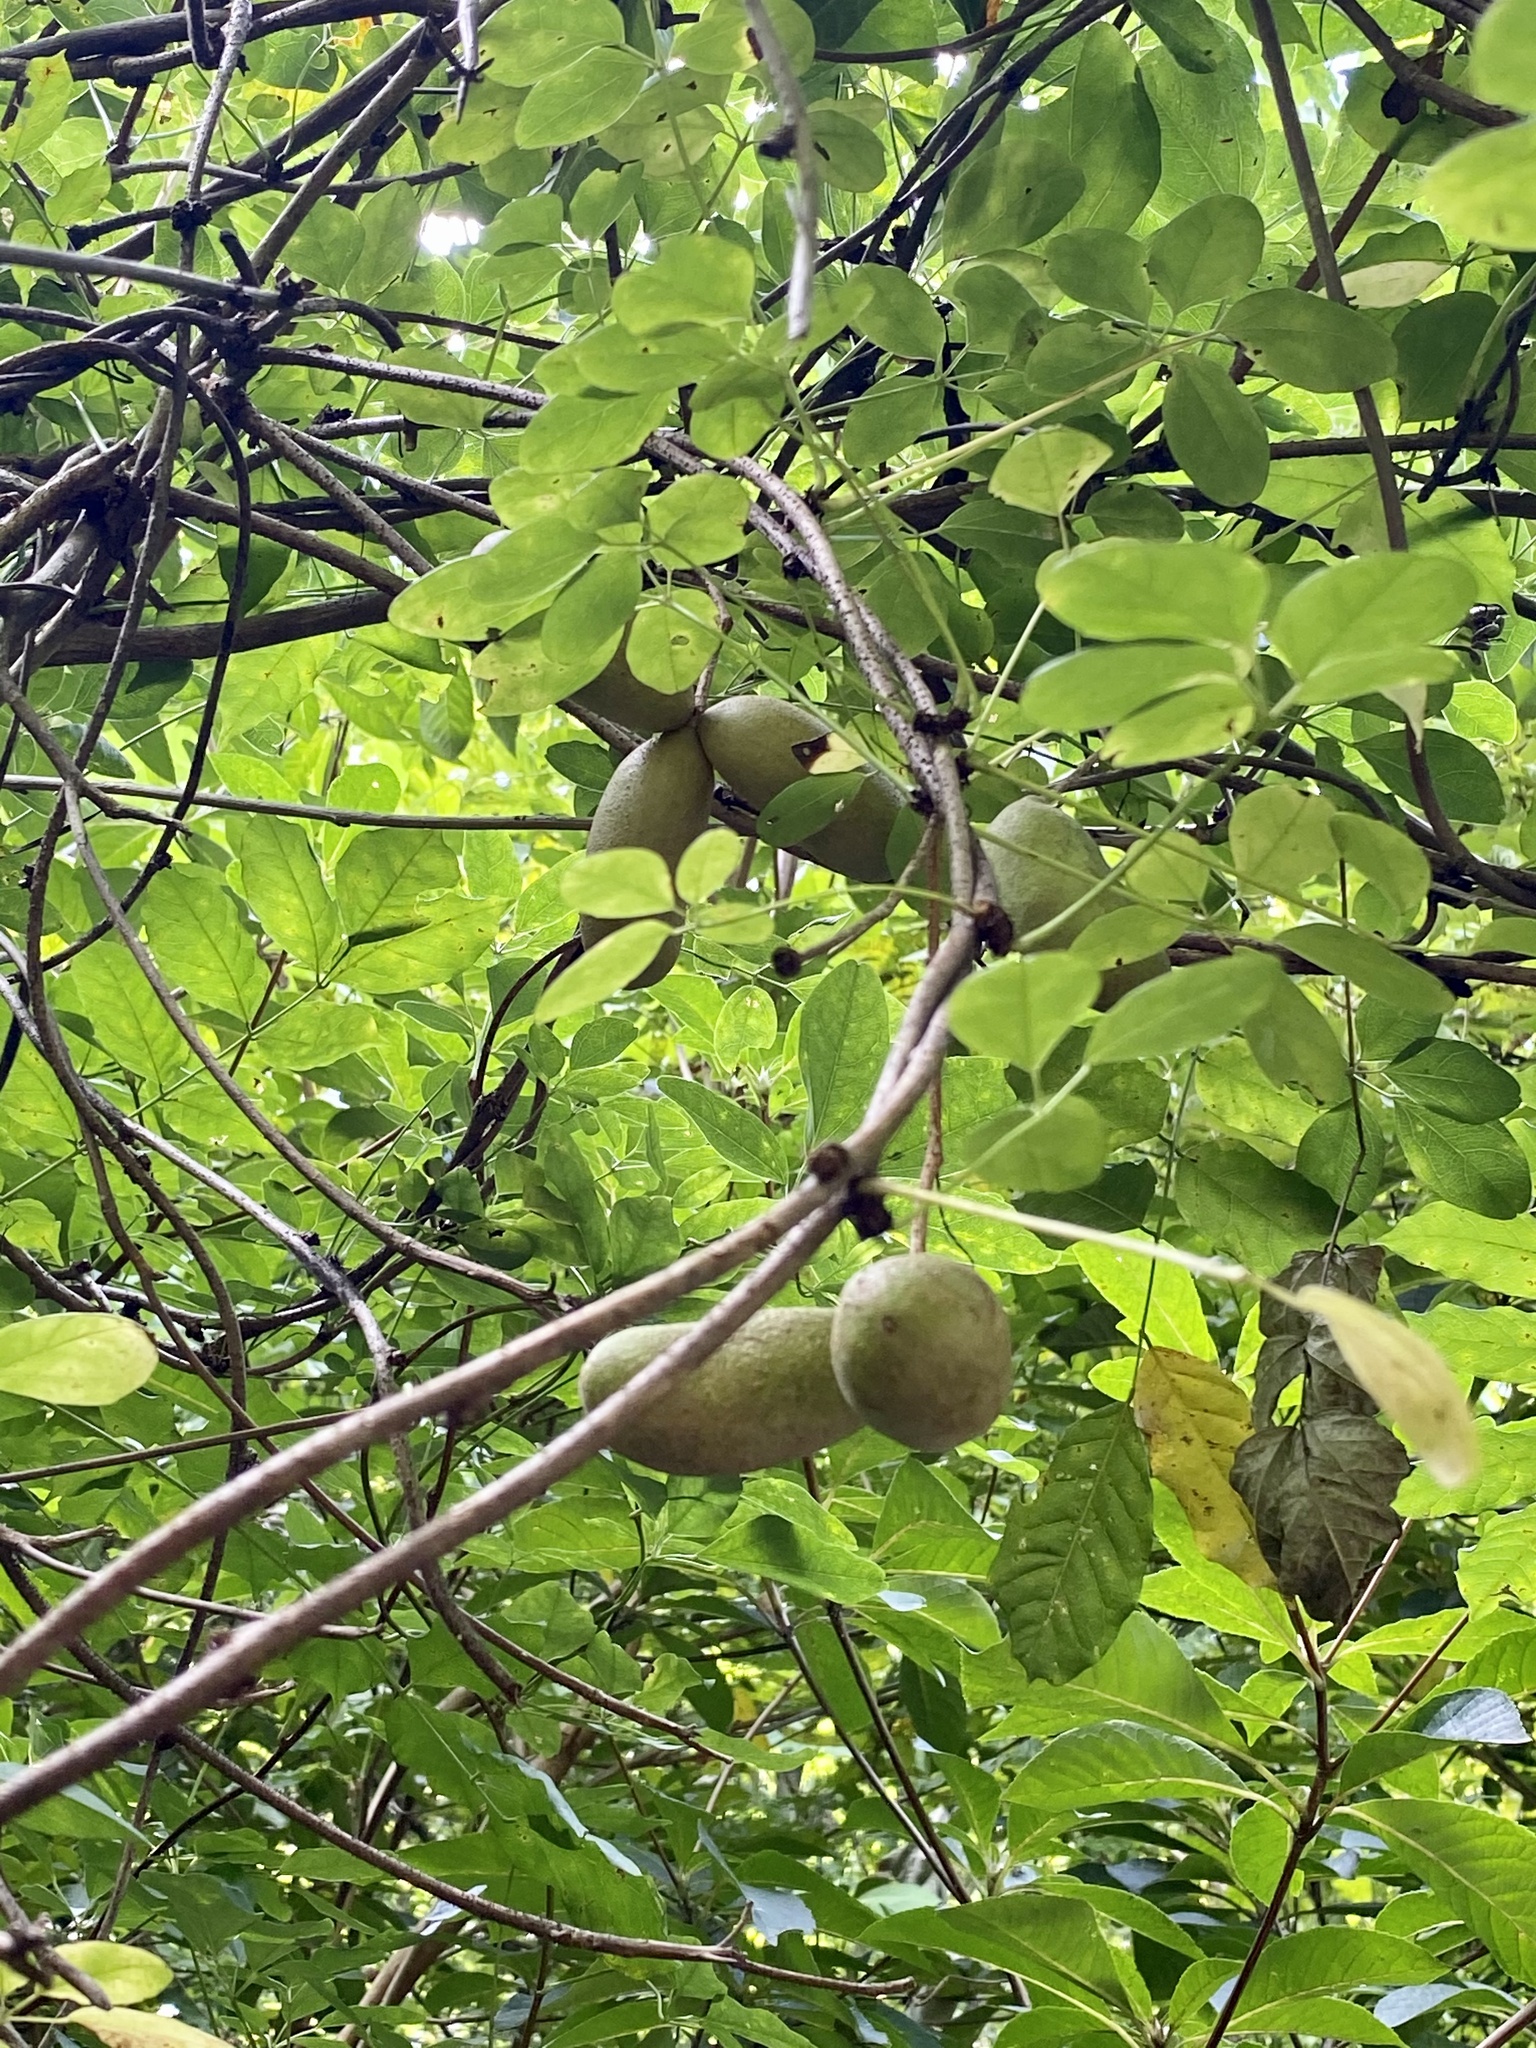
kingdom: Plantae
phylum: Tracheophyta
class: Magnoliopsida
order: Ranunculales
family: Lardizabalaceae
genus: Akebia
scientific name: Akebia quinata
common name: Five-leaf akebia
